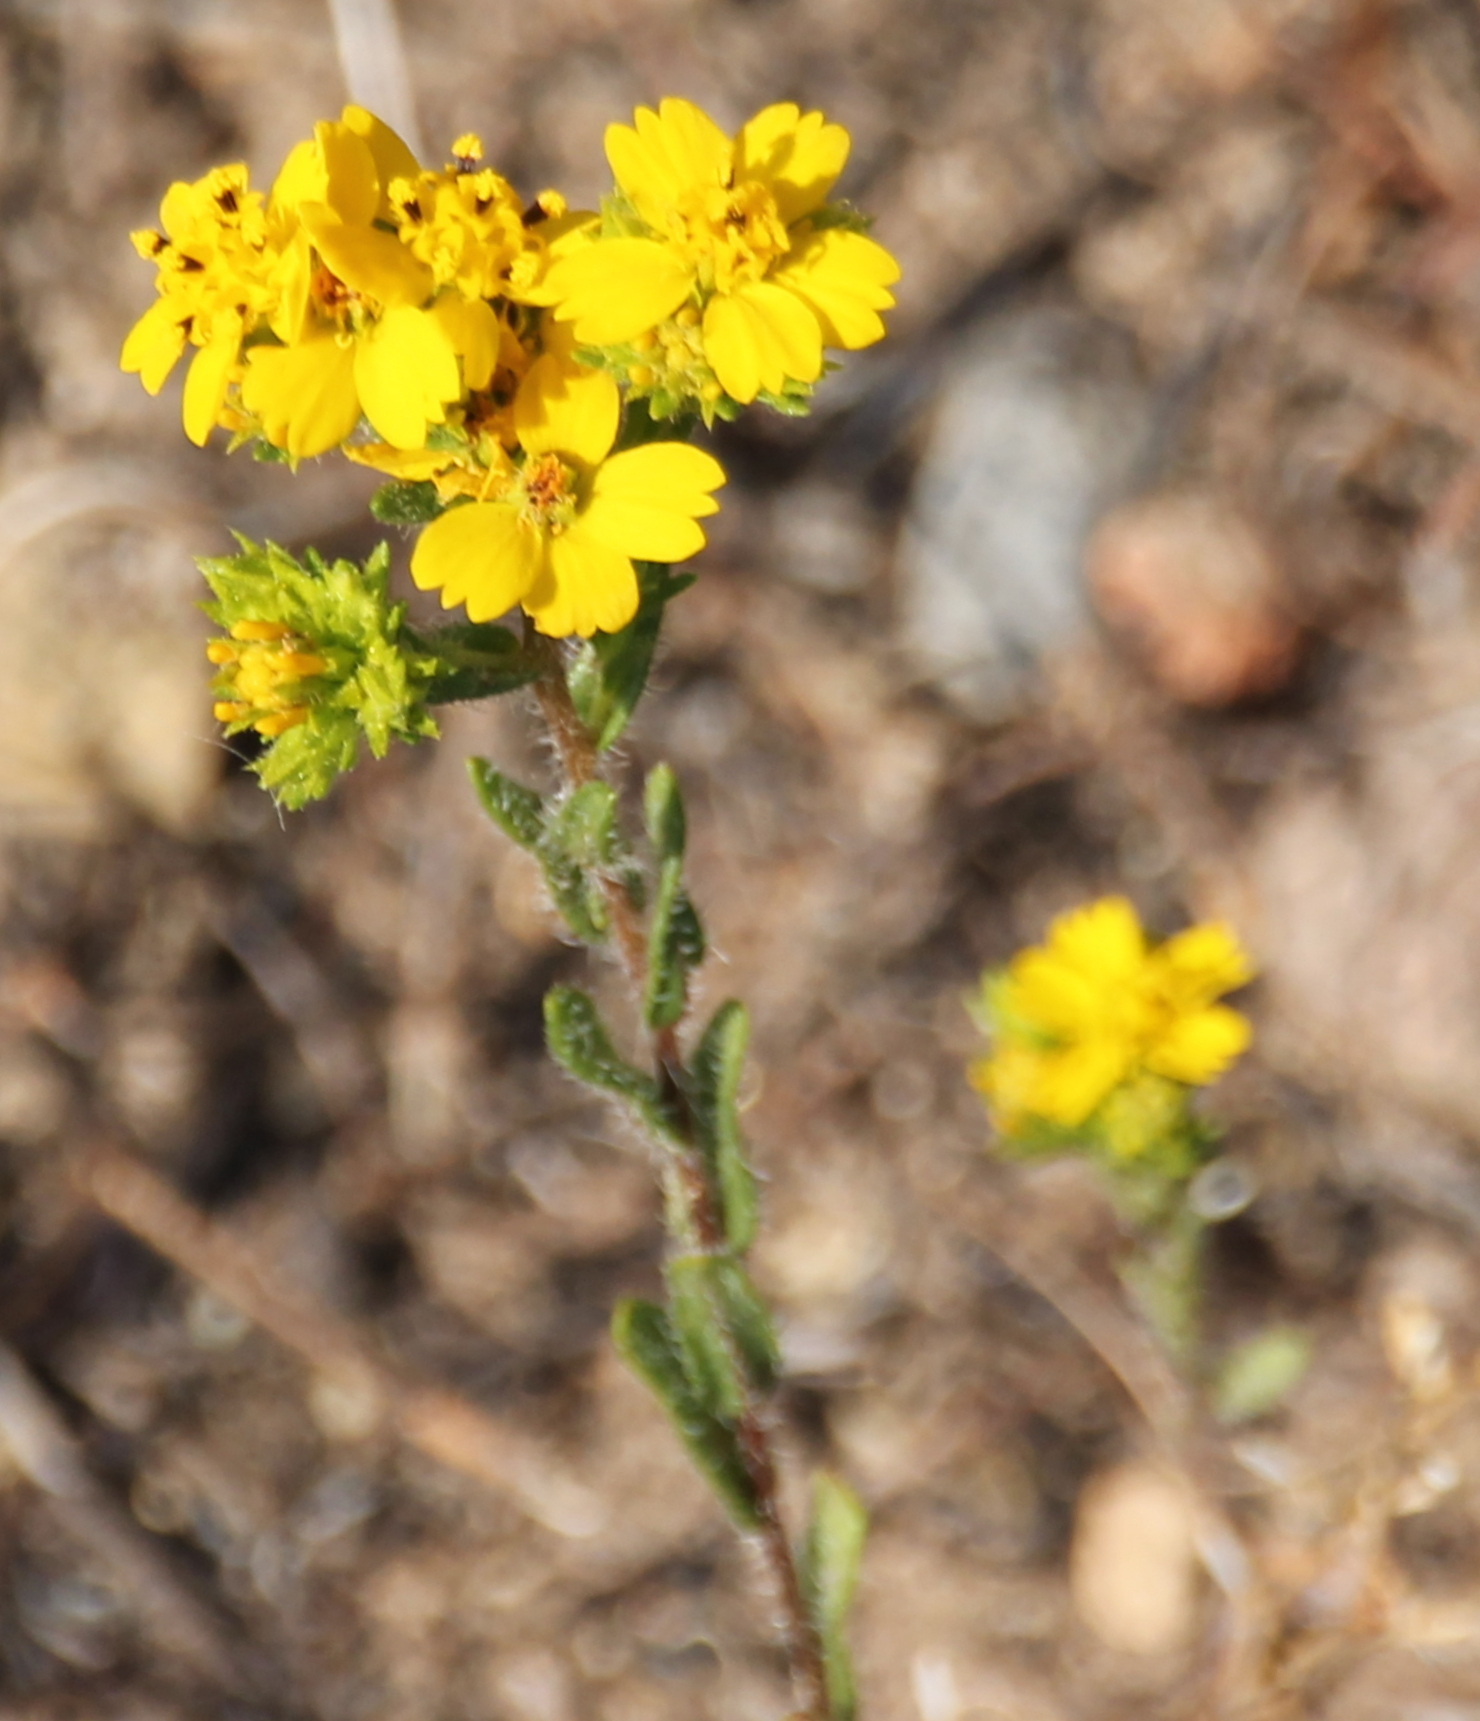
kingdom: Plantae
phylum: Tracheophyta
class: Magnoliopsida
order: Asterales
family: Asteraceae
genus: Deinandra
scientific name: Deinandra fasciculata
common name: Clustered tarweed
